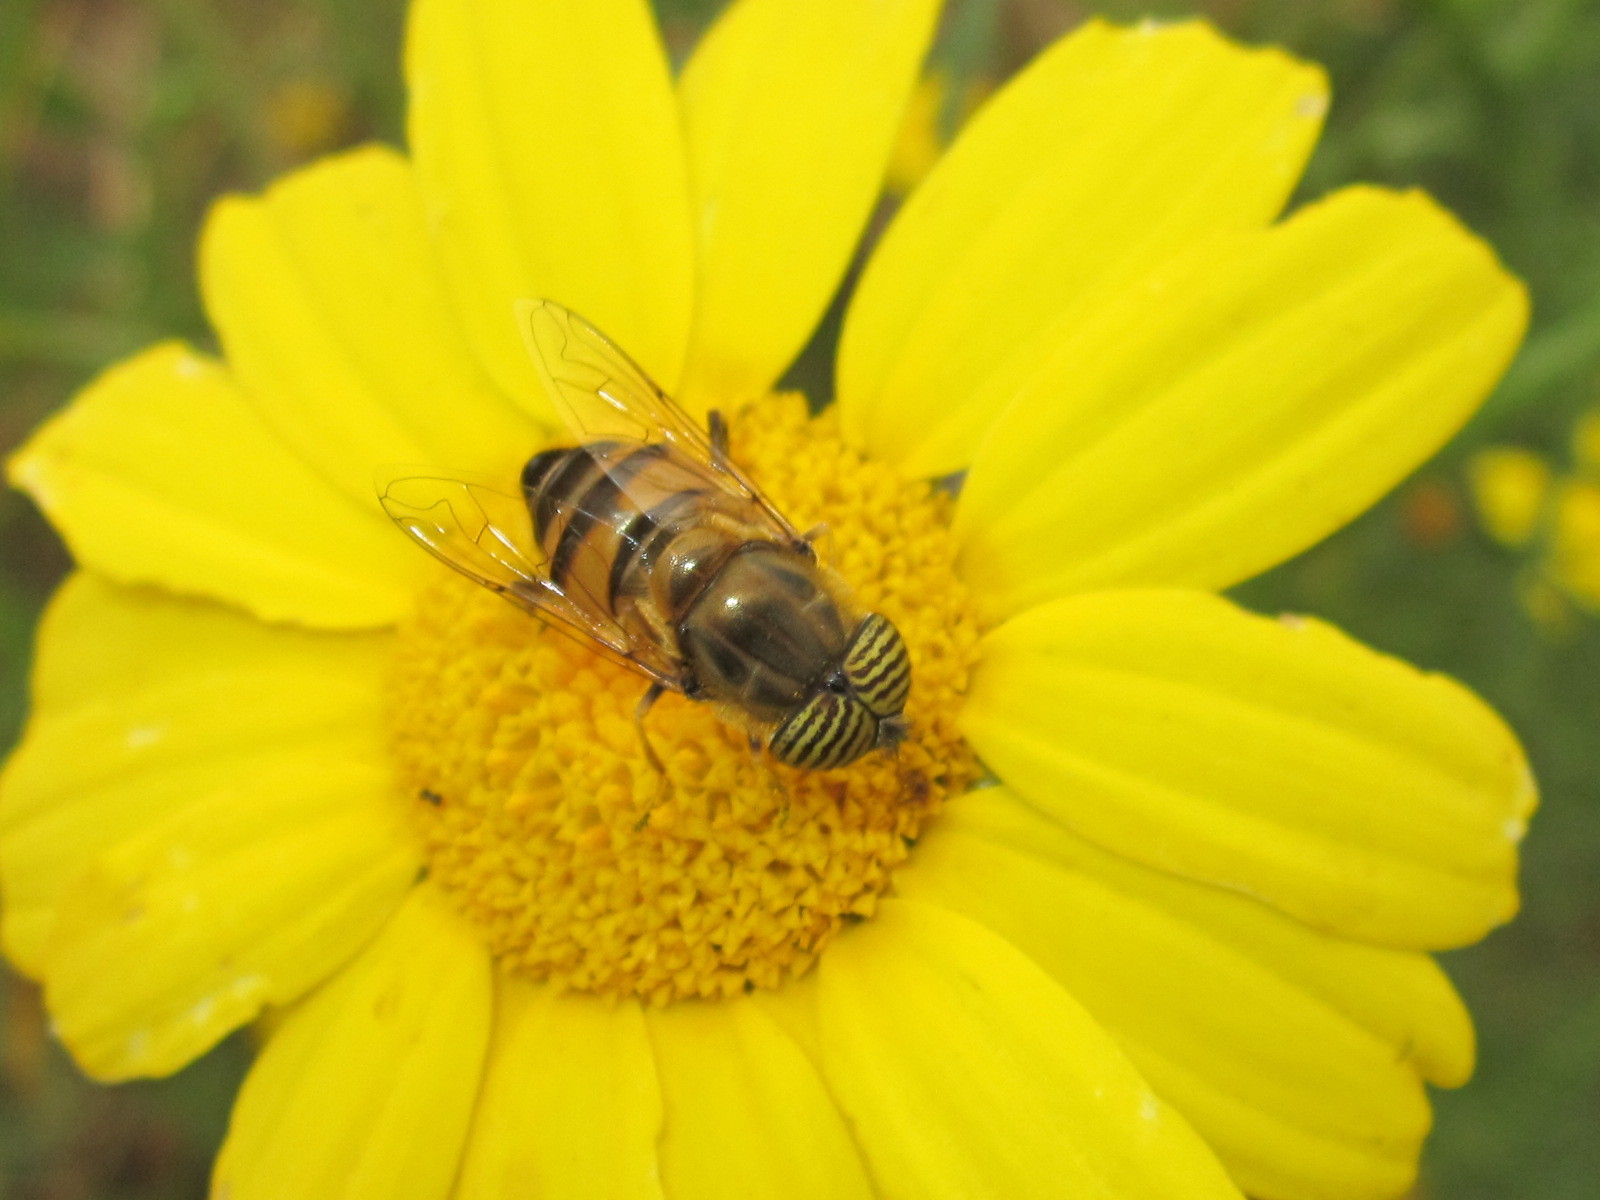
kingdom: Animalia
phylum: Arthropoda
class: Insecta
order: Diptera
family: Syrphidae
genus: Eristalinus
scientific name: Eristalinus taeniops
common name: Syrphid fly
